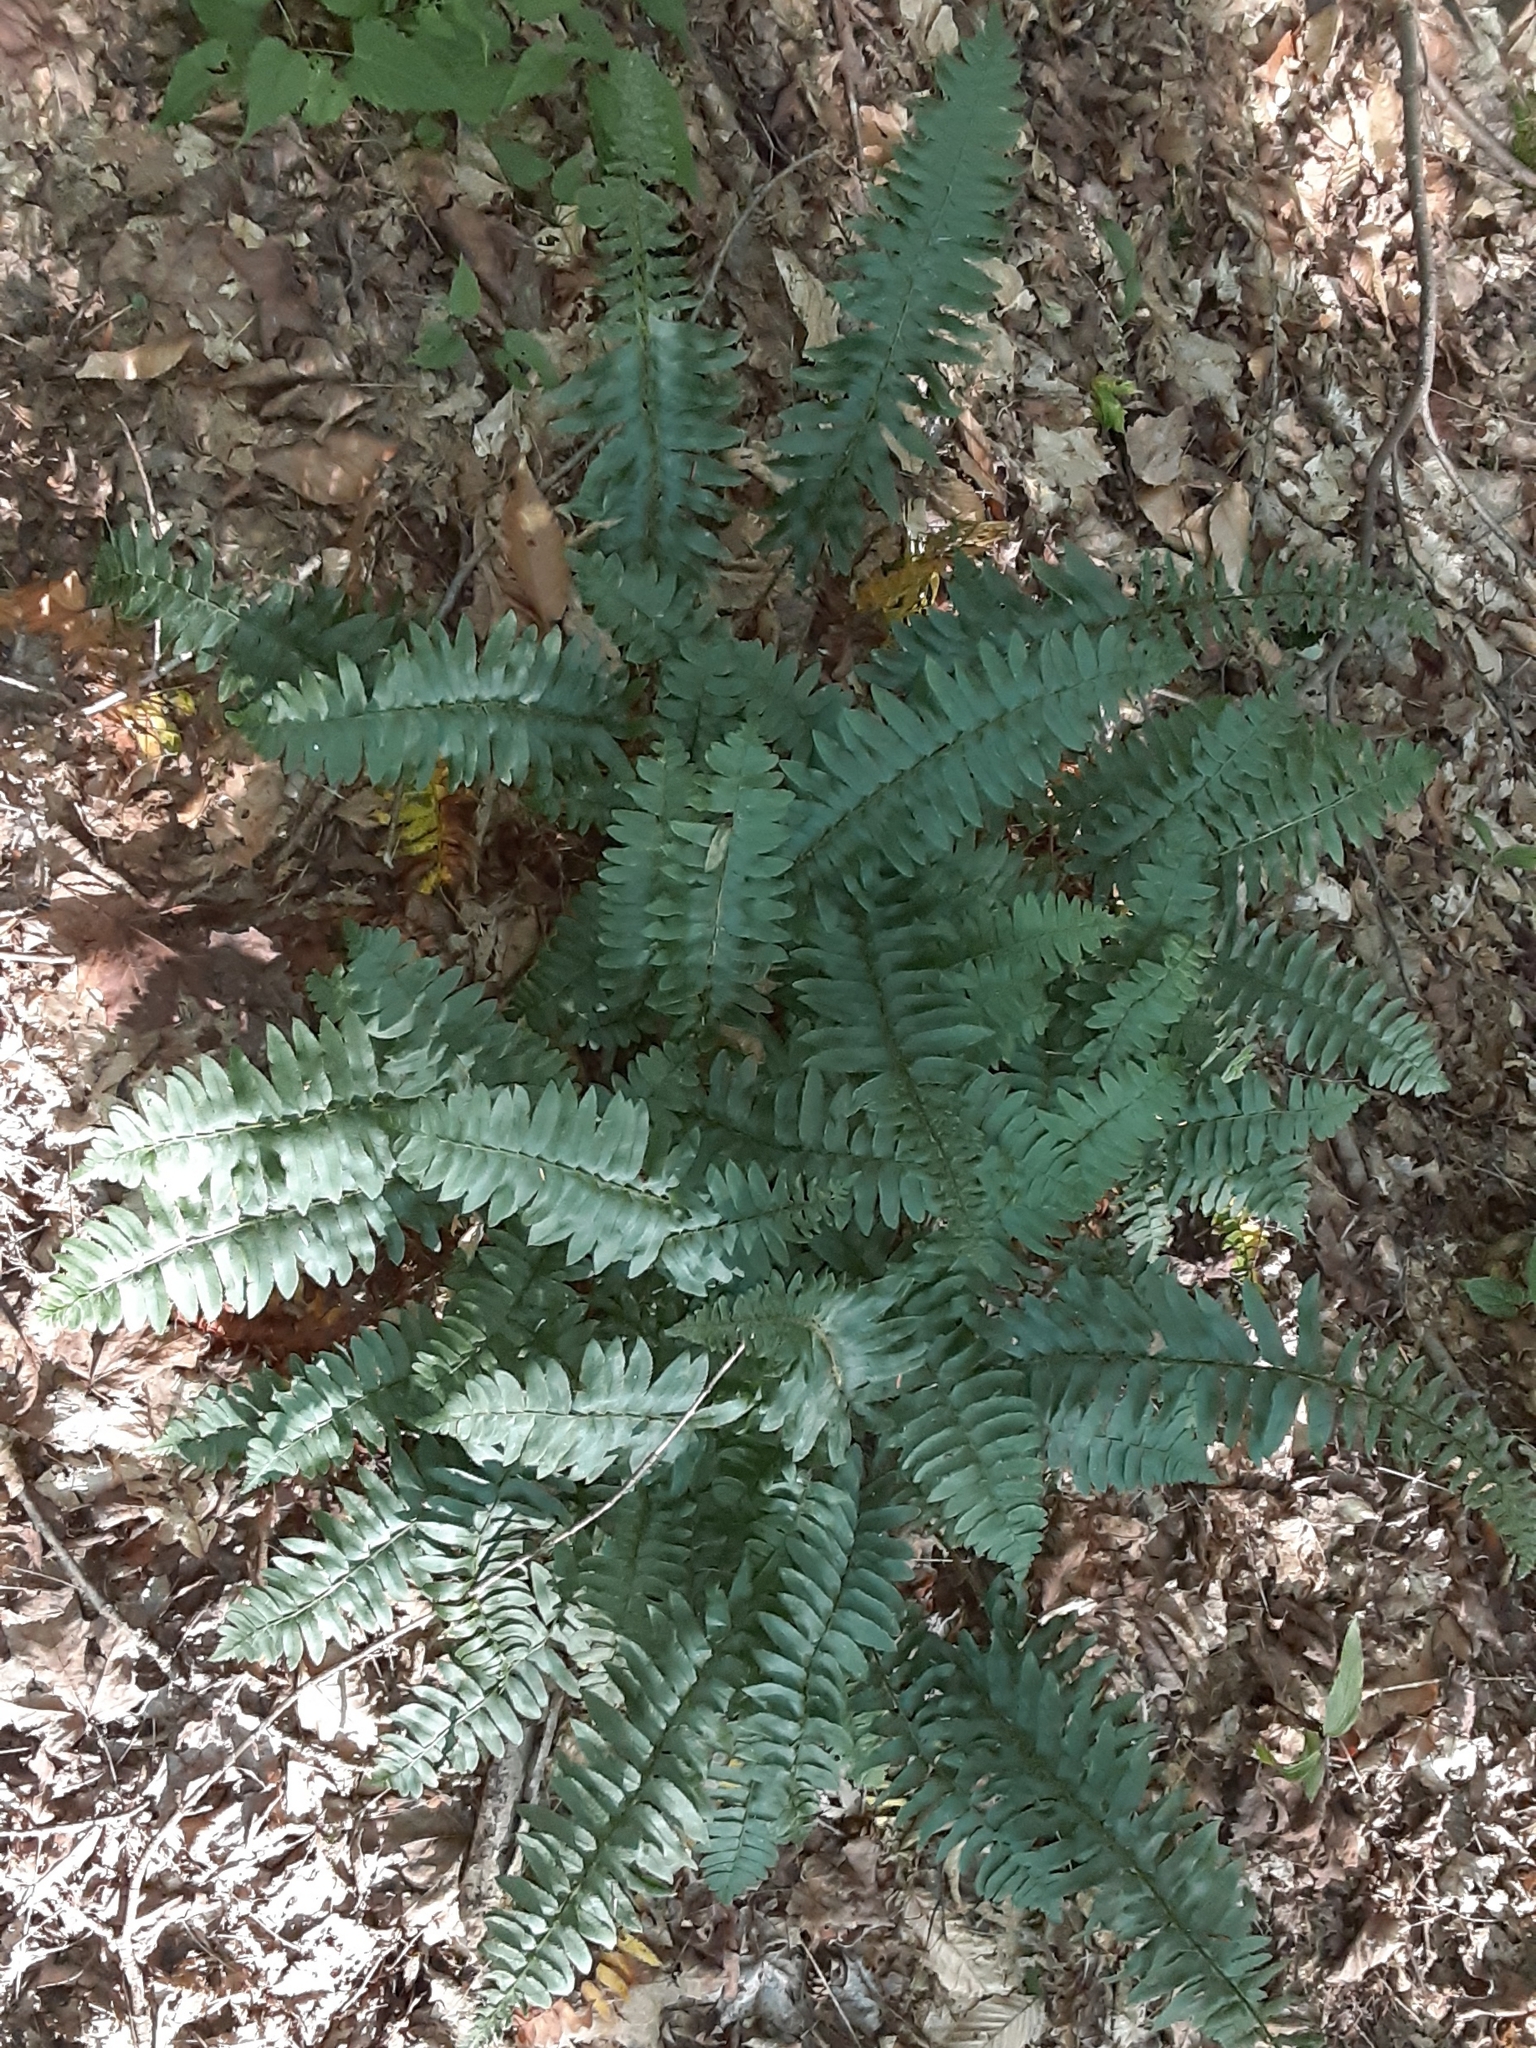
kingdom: Plantae
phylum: Tracheophyta
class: Polypodiopsida
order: Polypodiales
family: Dryopteridaceae
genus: Polystichum
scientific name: Polystichum acrostichoides
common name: Christmas fern
